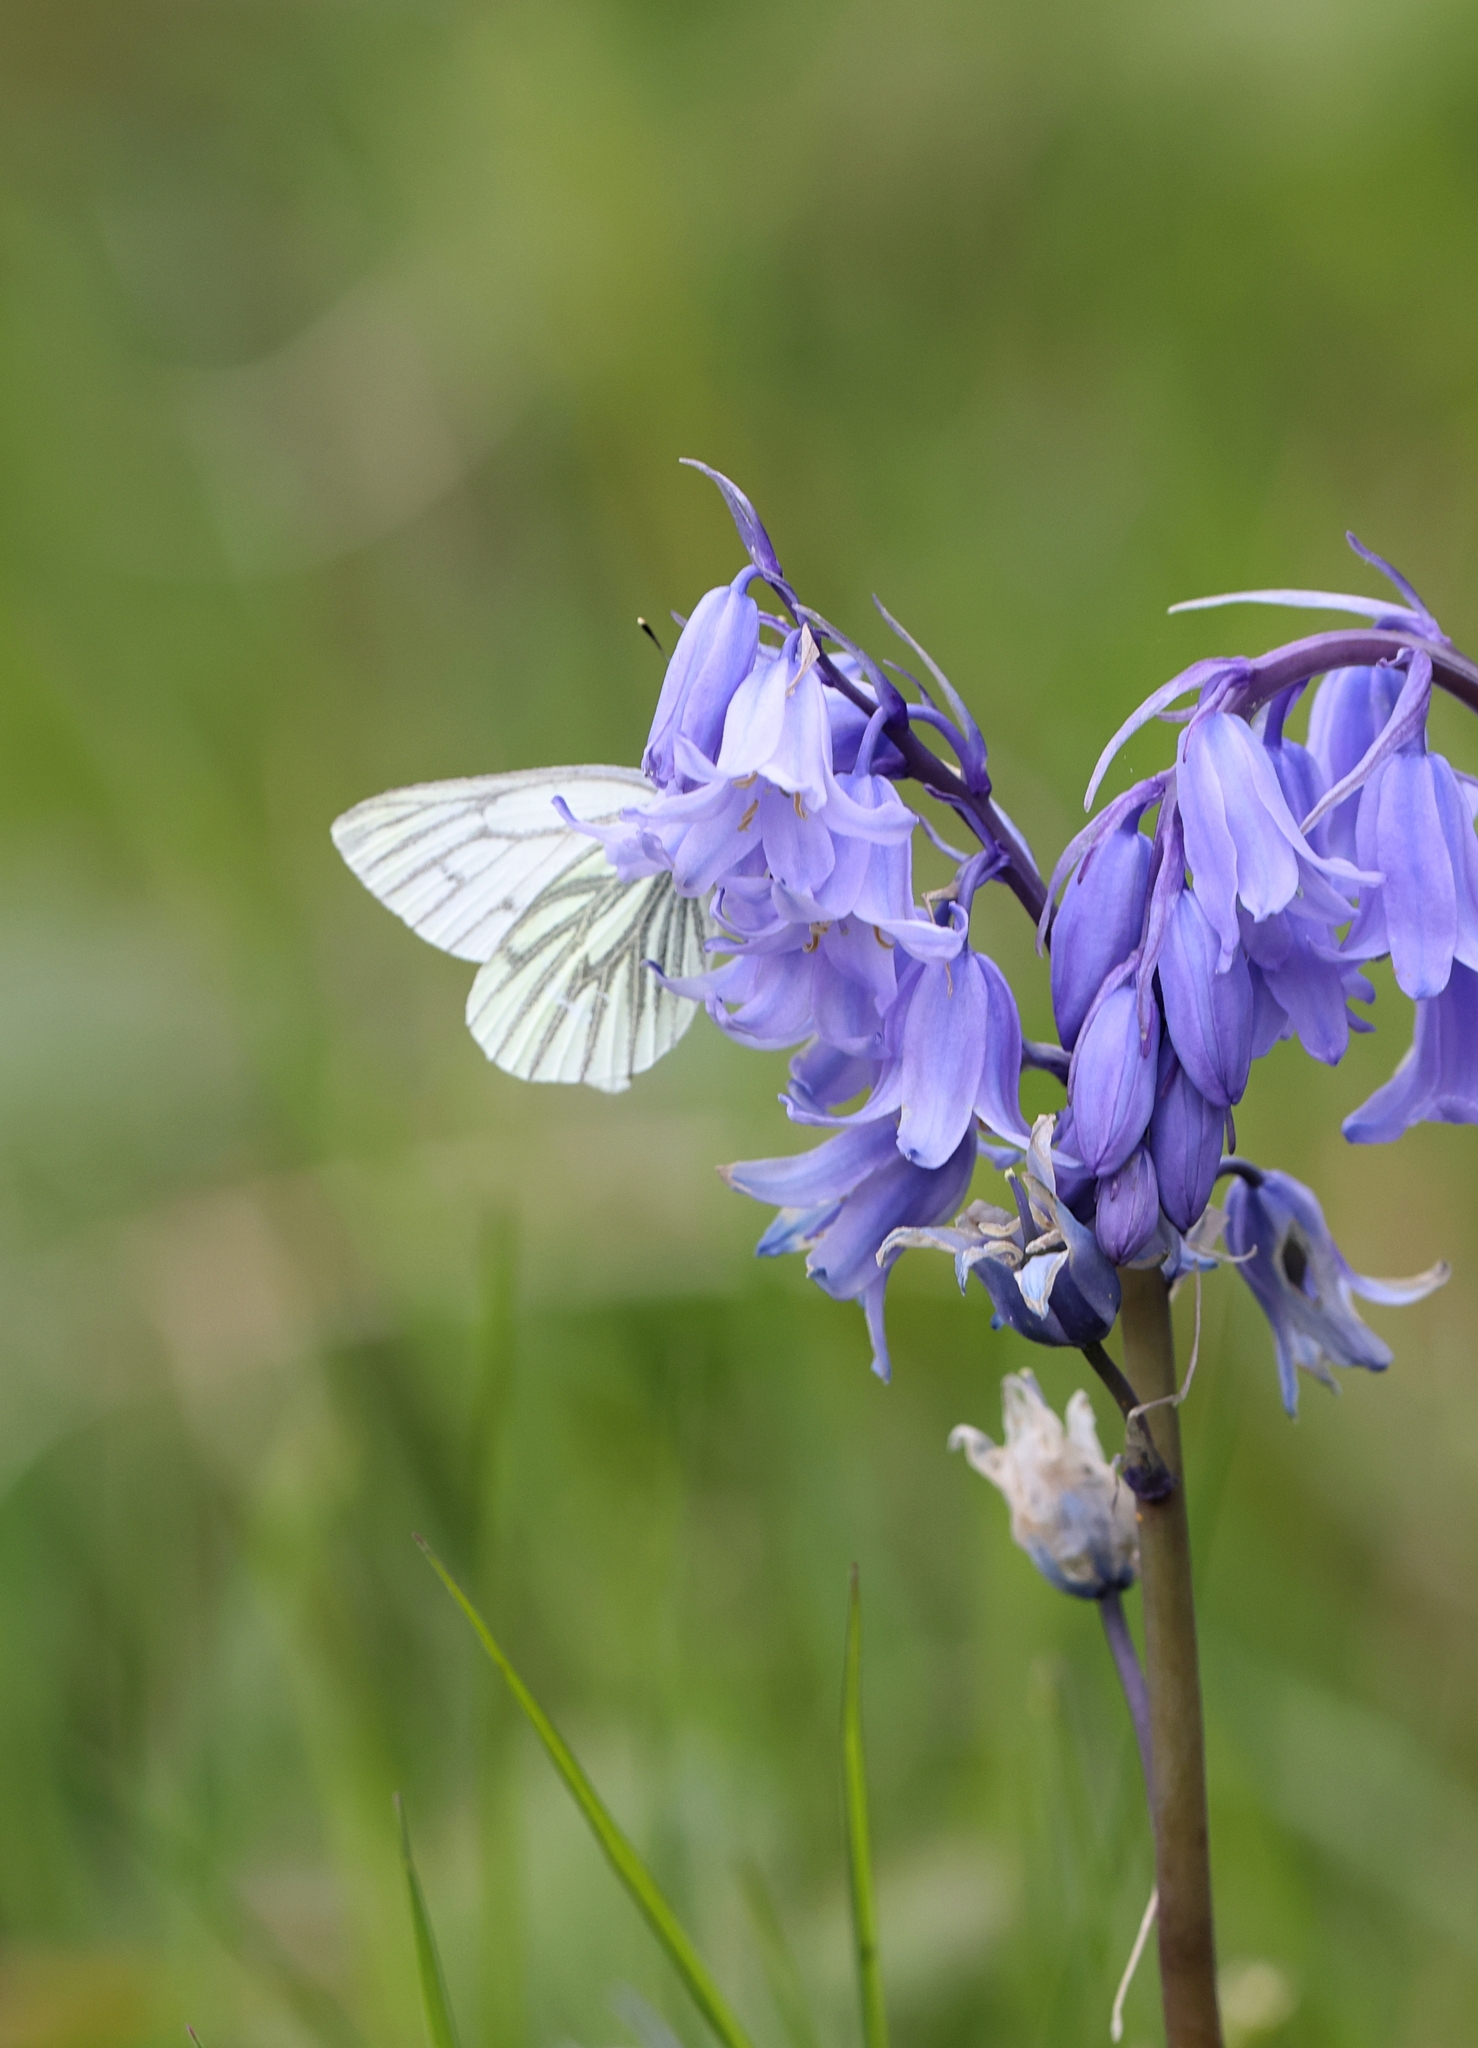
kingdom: Animalia
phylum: Arthropoda
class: Insecta
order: Lepidoptera
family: Pieridae
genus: Pieris
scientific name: Pieris napi
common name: Green-veined white
